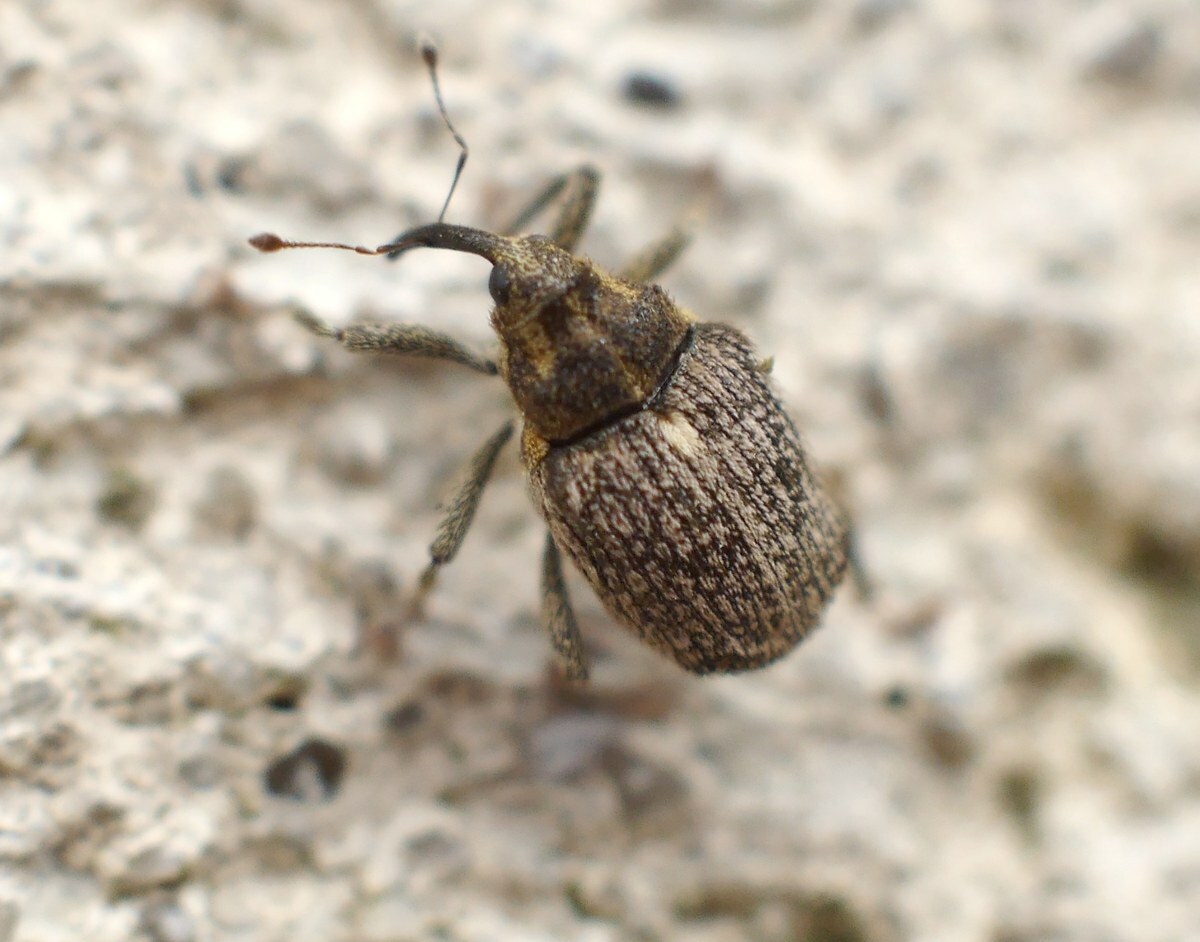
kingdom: Animalia
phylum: Arthropoda
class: Insecta
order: Coleoptera
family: Curculionidae
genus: Ceutorhynchus
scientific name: Ceutorhynchus pallidactylus
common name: Cabbage stem weavil
